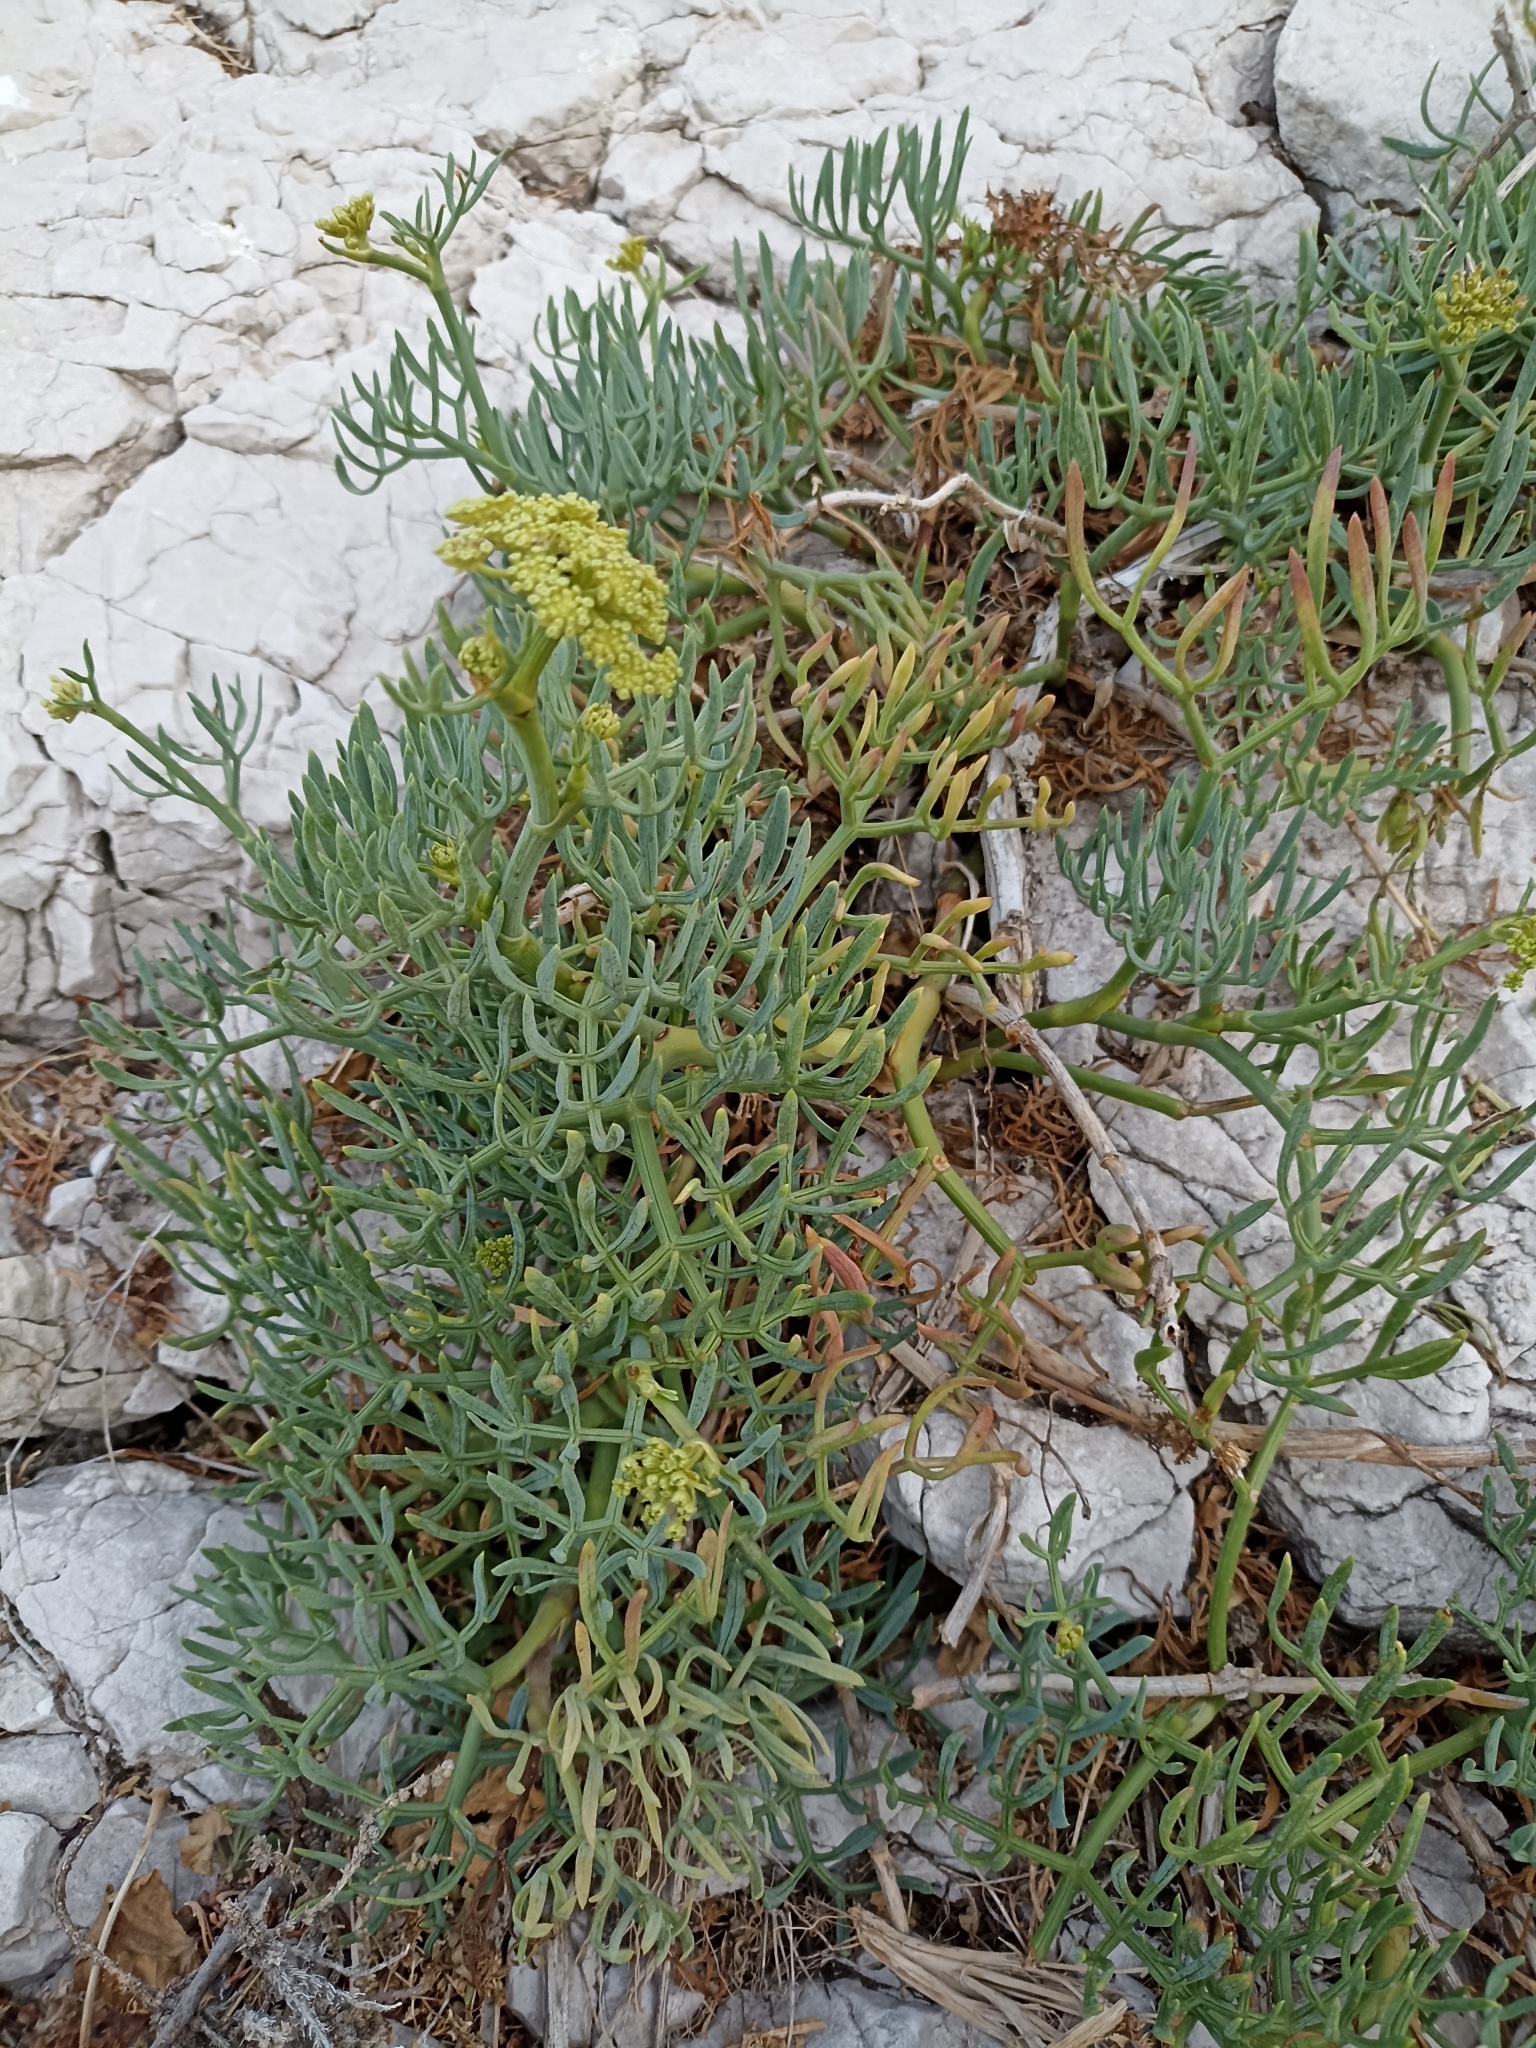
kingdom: Plantae
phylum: Tracheophyta
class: Magnoliopsida
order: Apiales
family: Apiaceae
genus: Crithmum
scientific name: Crithmum maritimum
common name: Rock samphire
